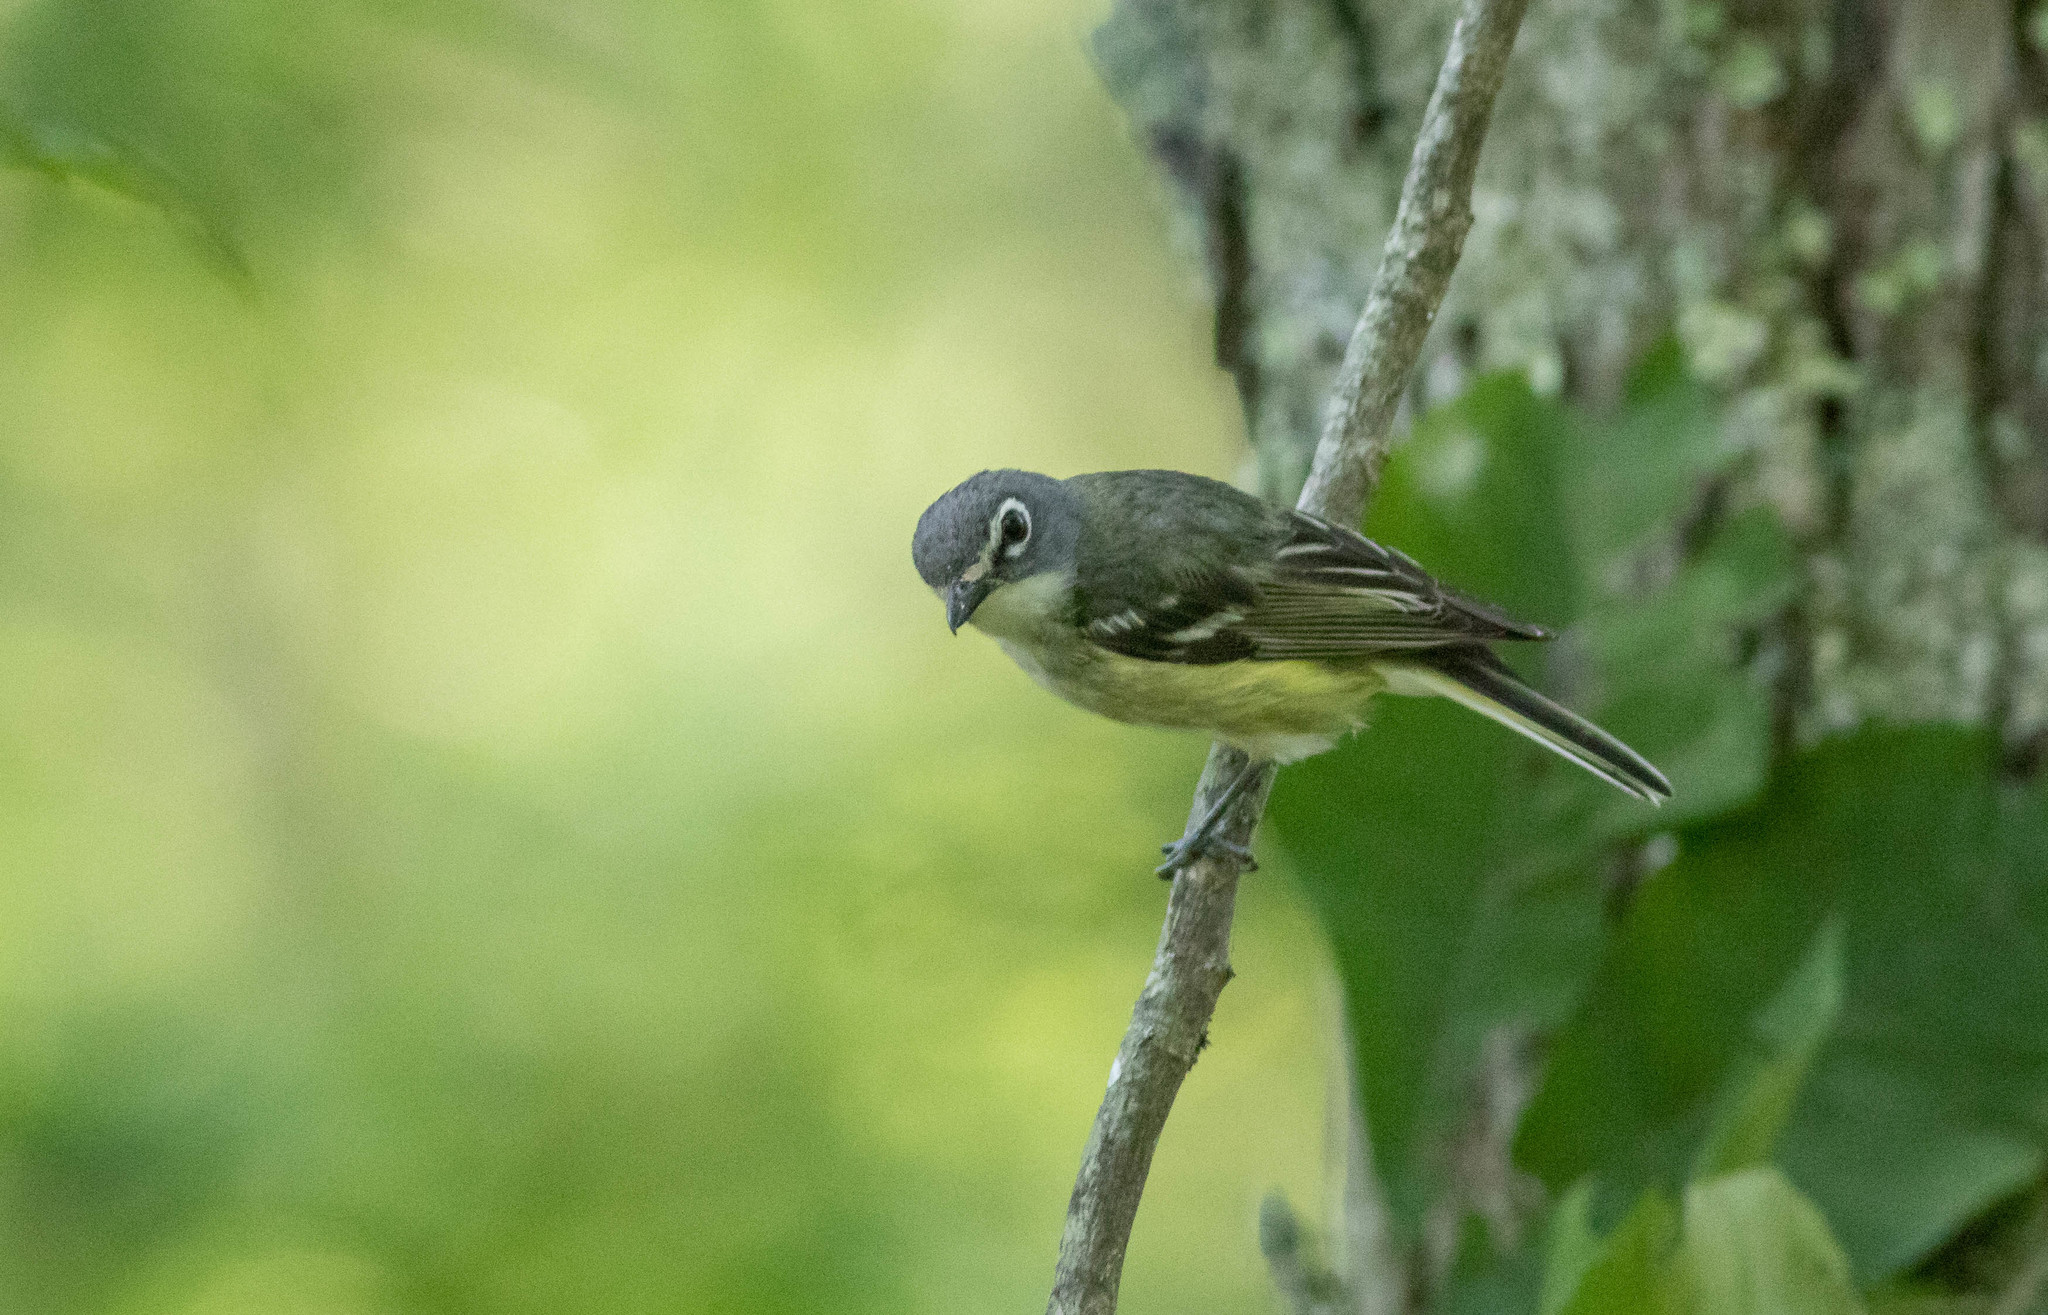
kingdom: Animalia
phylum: Chordata
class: Aves
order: Passeriformes
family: Vireonidae
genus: Vireo
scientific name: Vireo solitarius
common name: Blue-headed vireo
